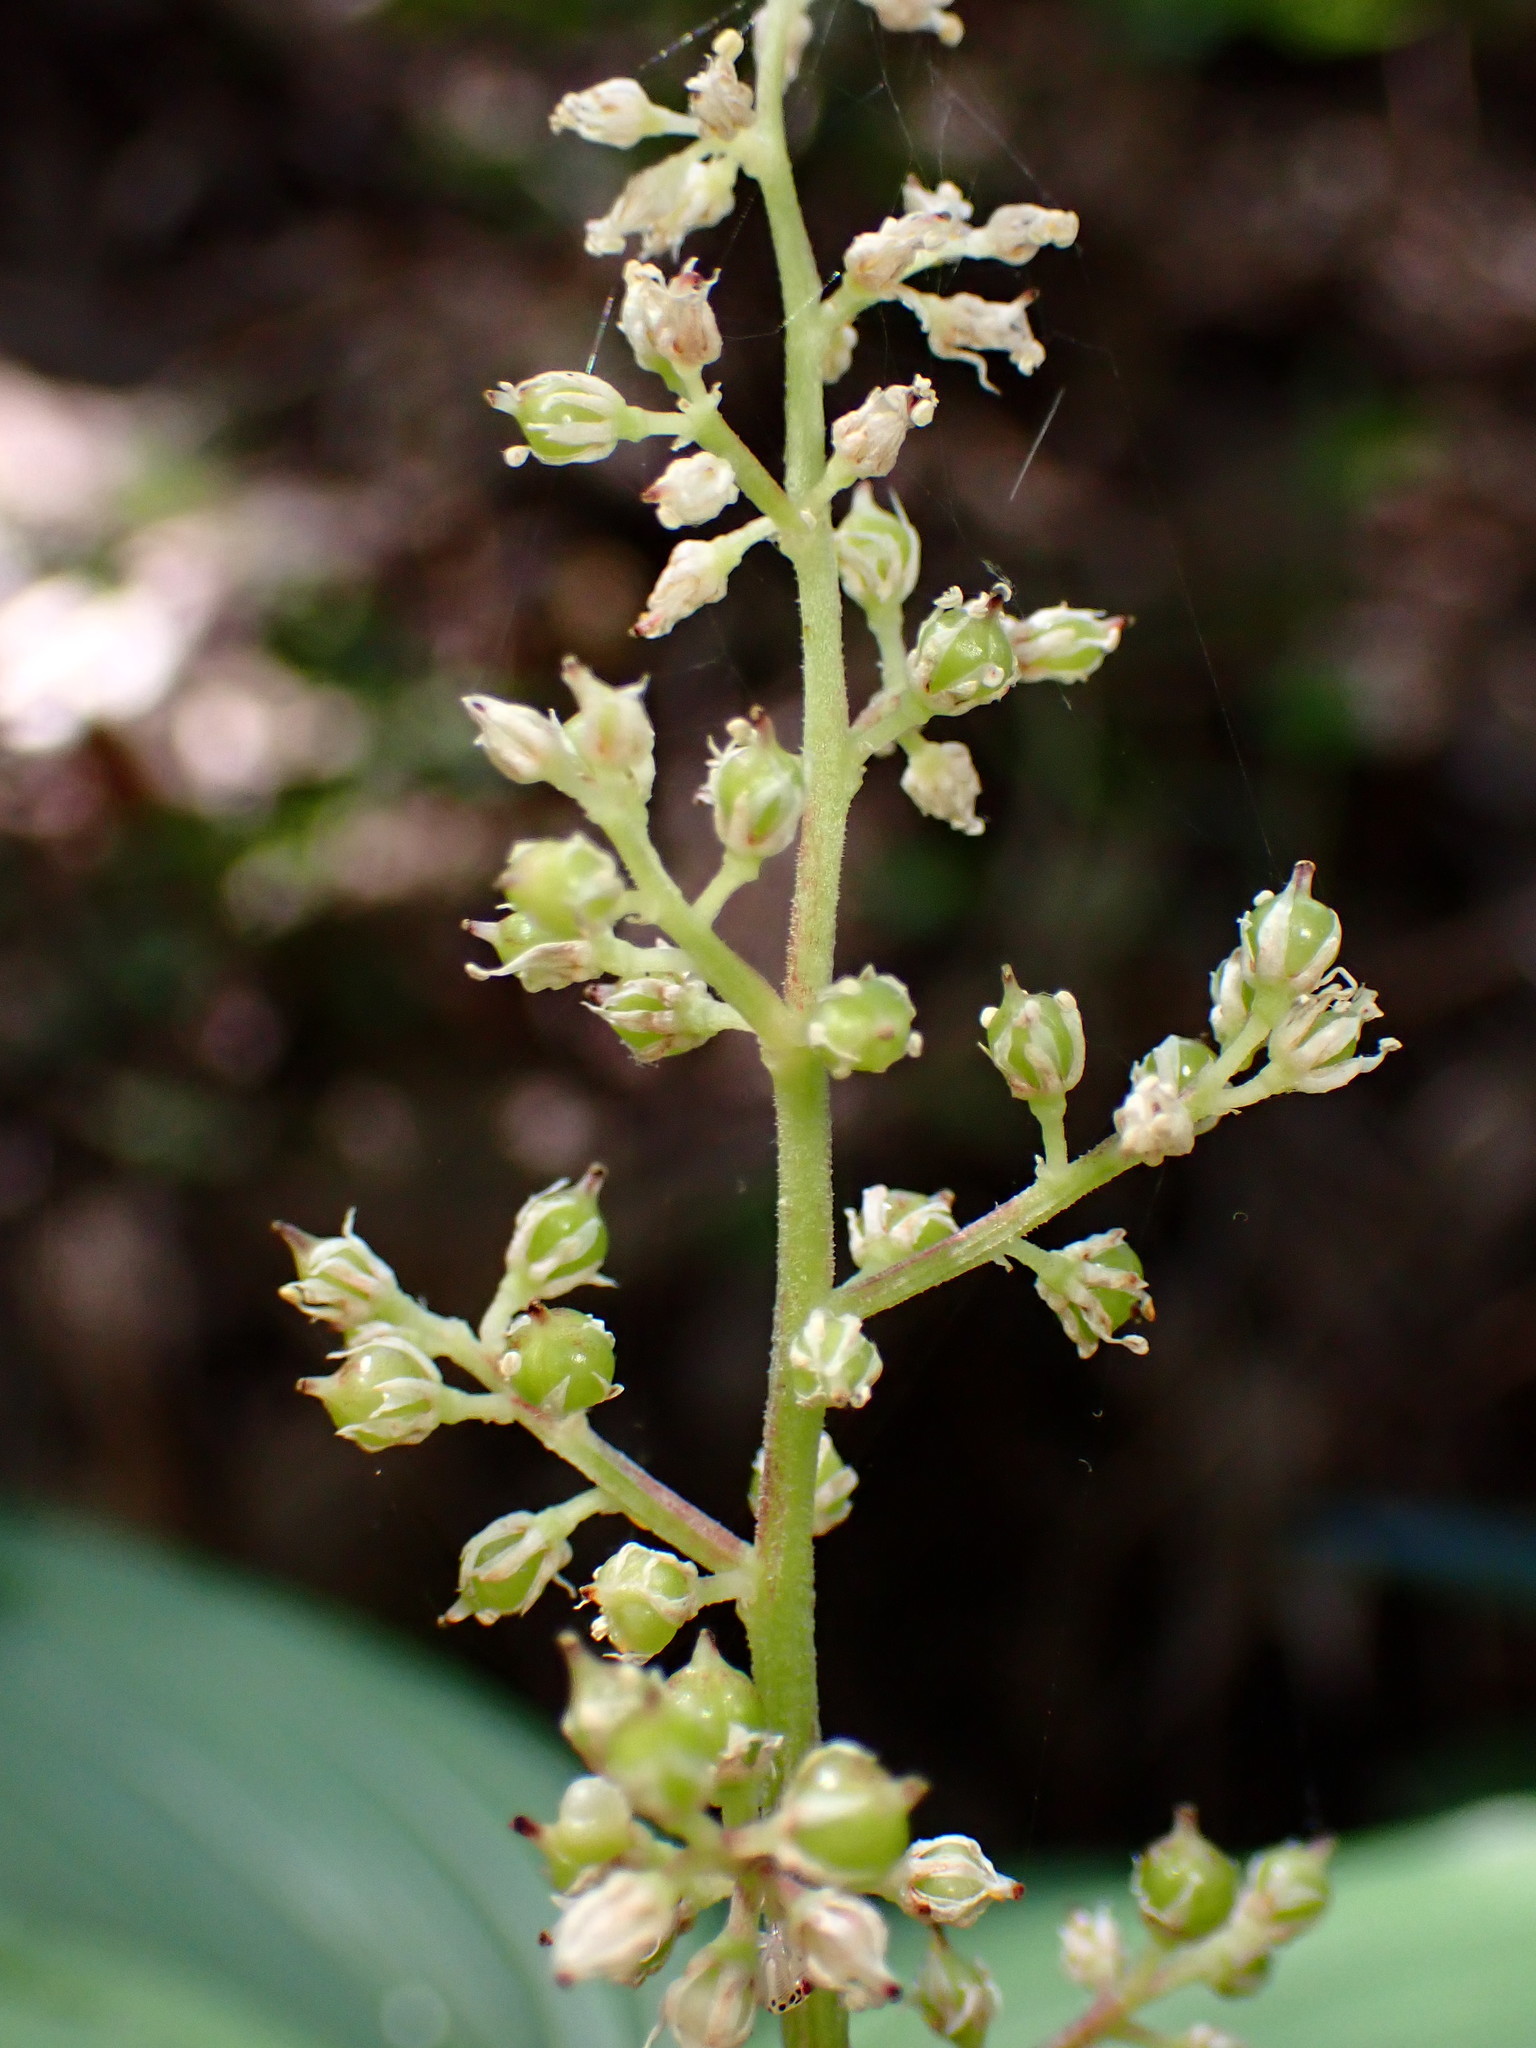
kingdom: Plantae
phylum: Tracheophyta
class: Liliopsida
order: Asparagales
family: Asparagaceae
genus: Maianthemum
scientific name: Maianthemum racemosum
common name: False spikenard
